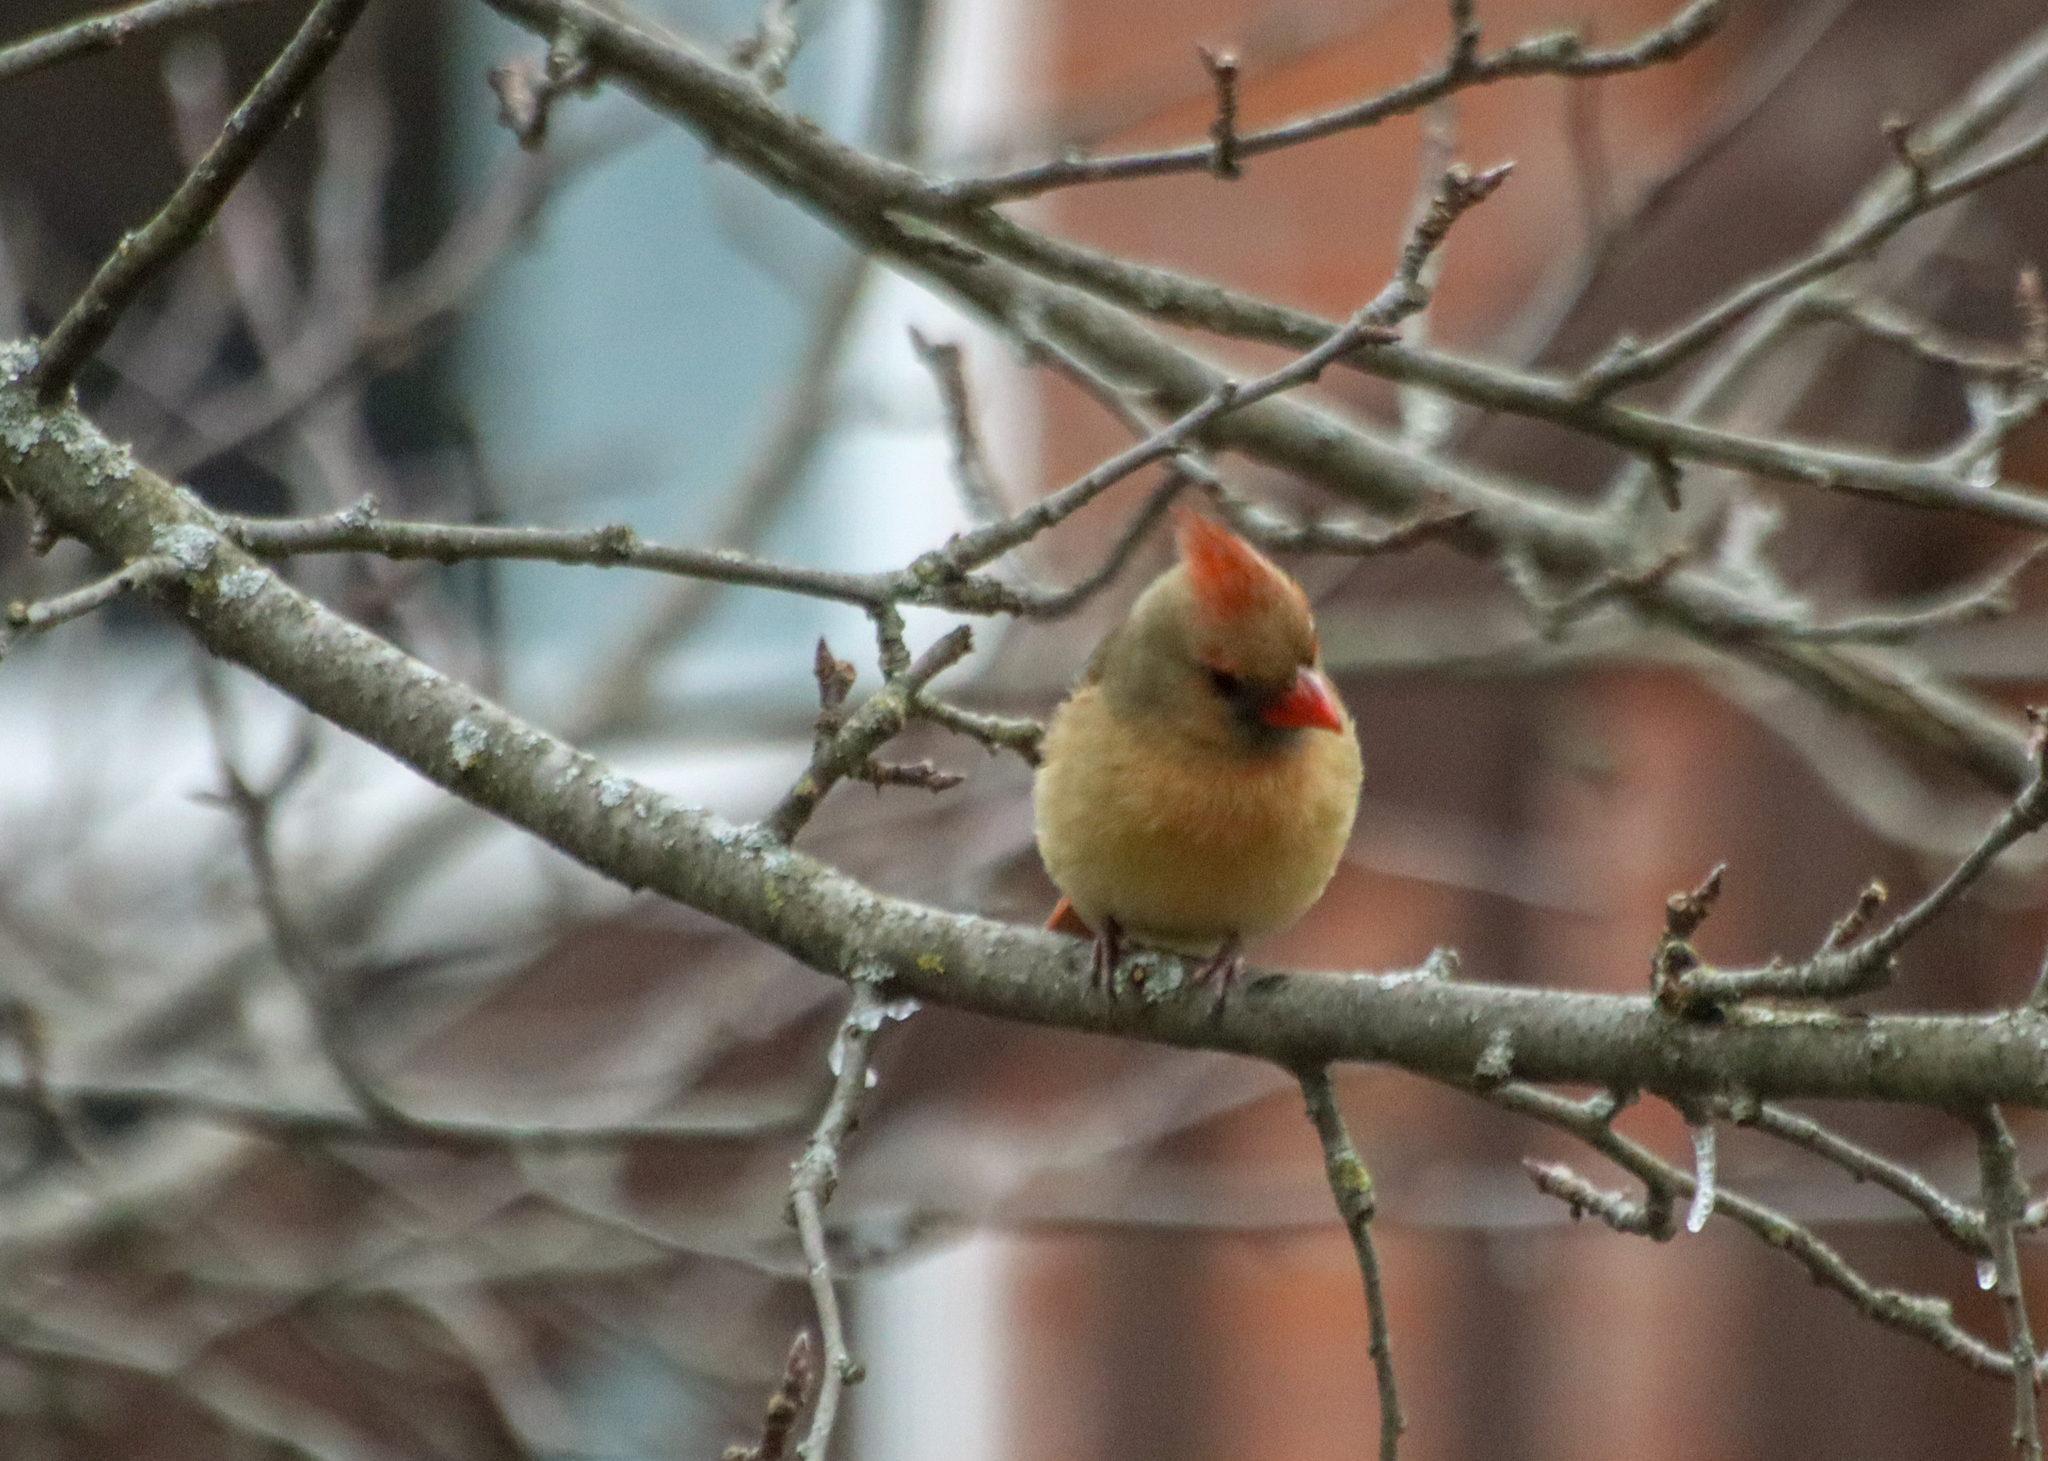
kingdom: Animalia
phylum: Chordata
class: Aves
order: Passeriformes
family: Cardinalidae
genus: Cardinalis
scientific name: Cardinalis cardinalis
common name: Northern cardinal
